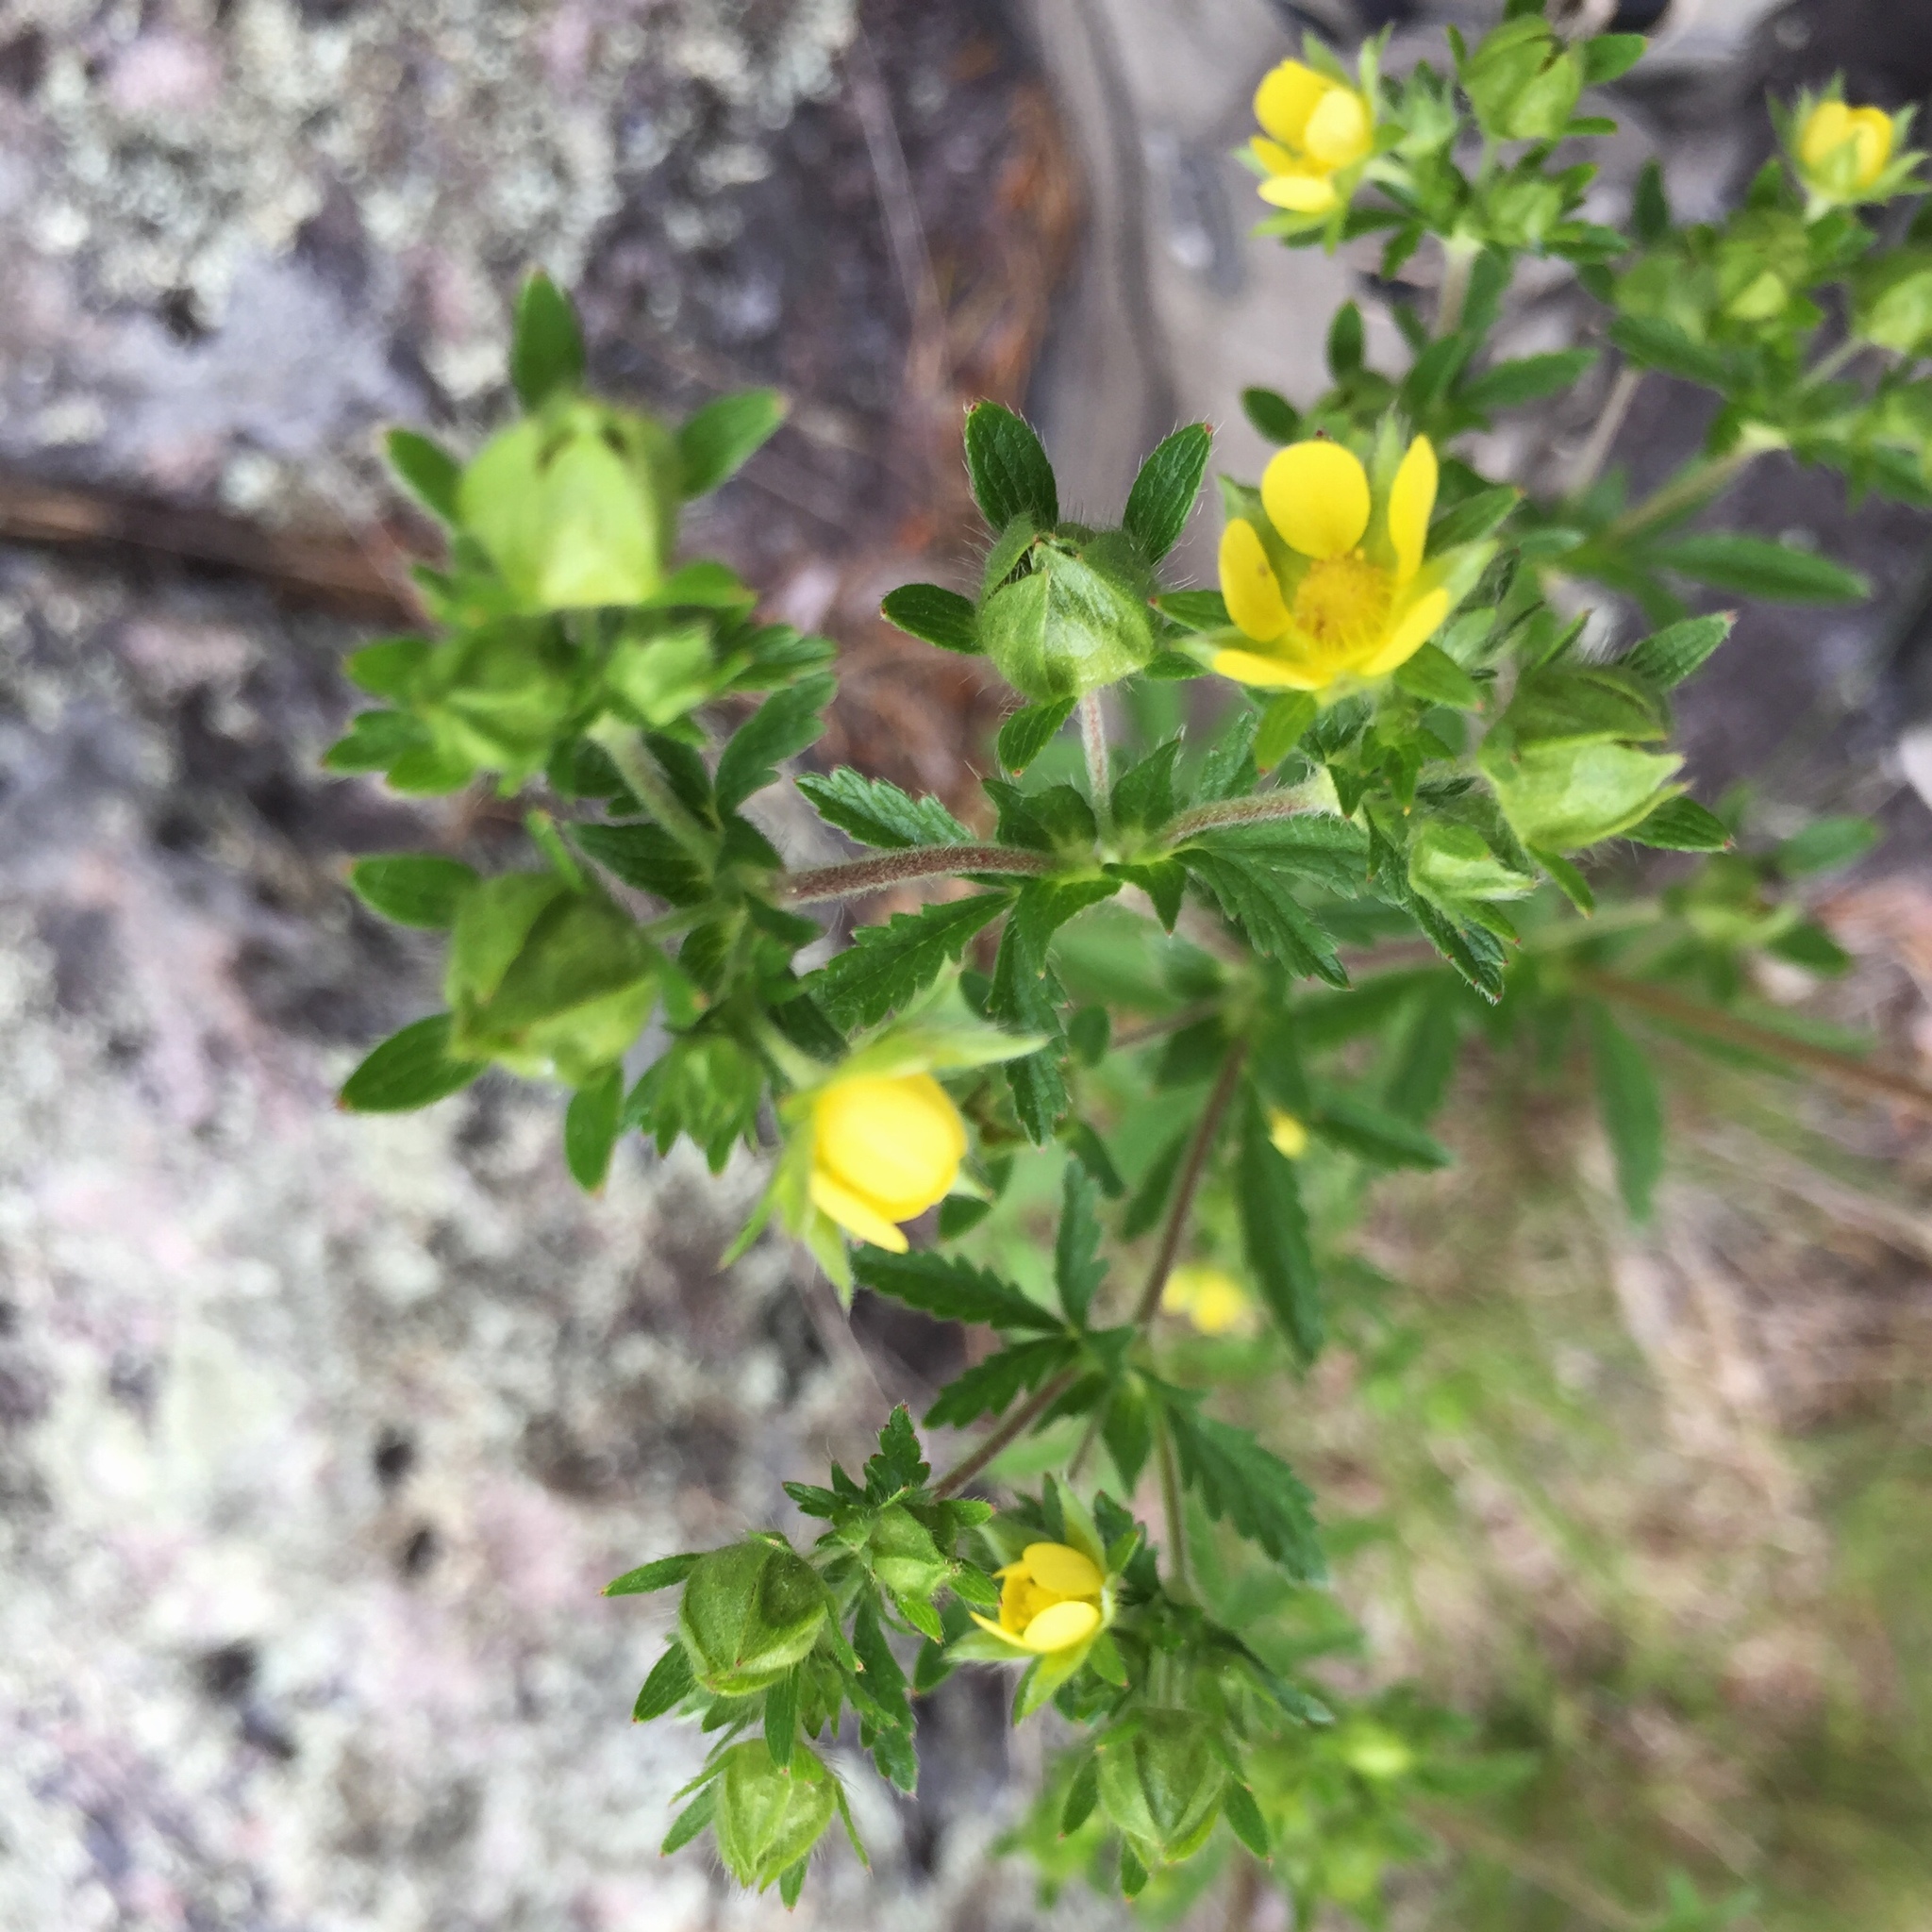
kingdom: Plantae
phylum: Tracheophyta
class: Magnoliopsida
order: Rosales
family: Rosaceae
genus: Potentilla
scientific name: Potentilla norvegica
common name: Ternate-leaved cinquefoil
